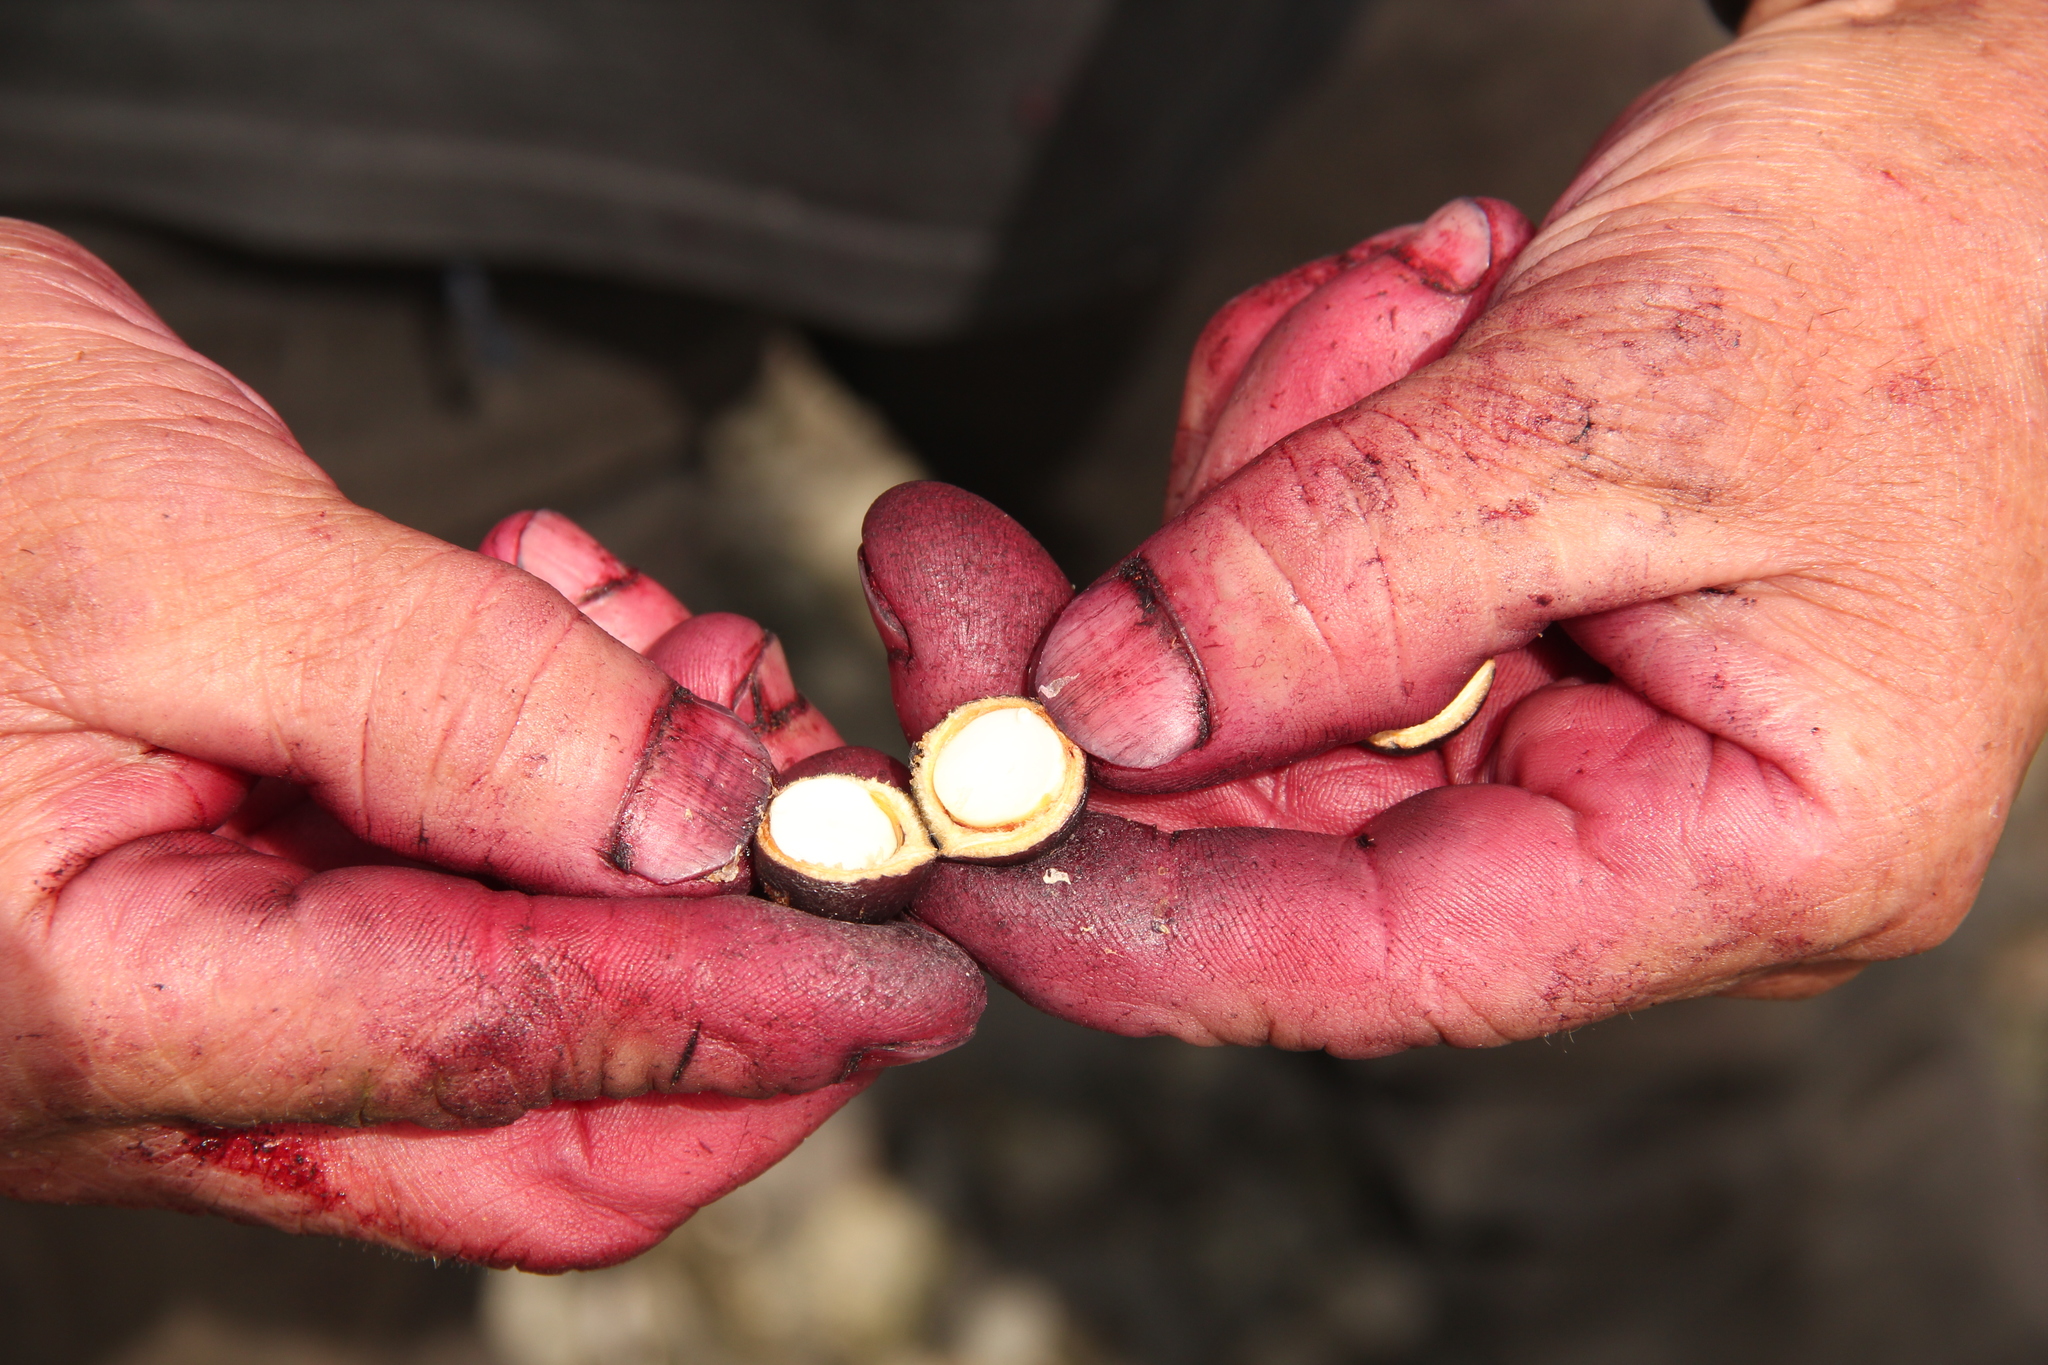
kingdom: Plantae
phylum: Tracheophyta
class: Magnoliopsida
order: Proteales
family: Proteaceae
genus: Gevuina
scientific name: Gevuina avellana
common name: Chilean hazel
